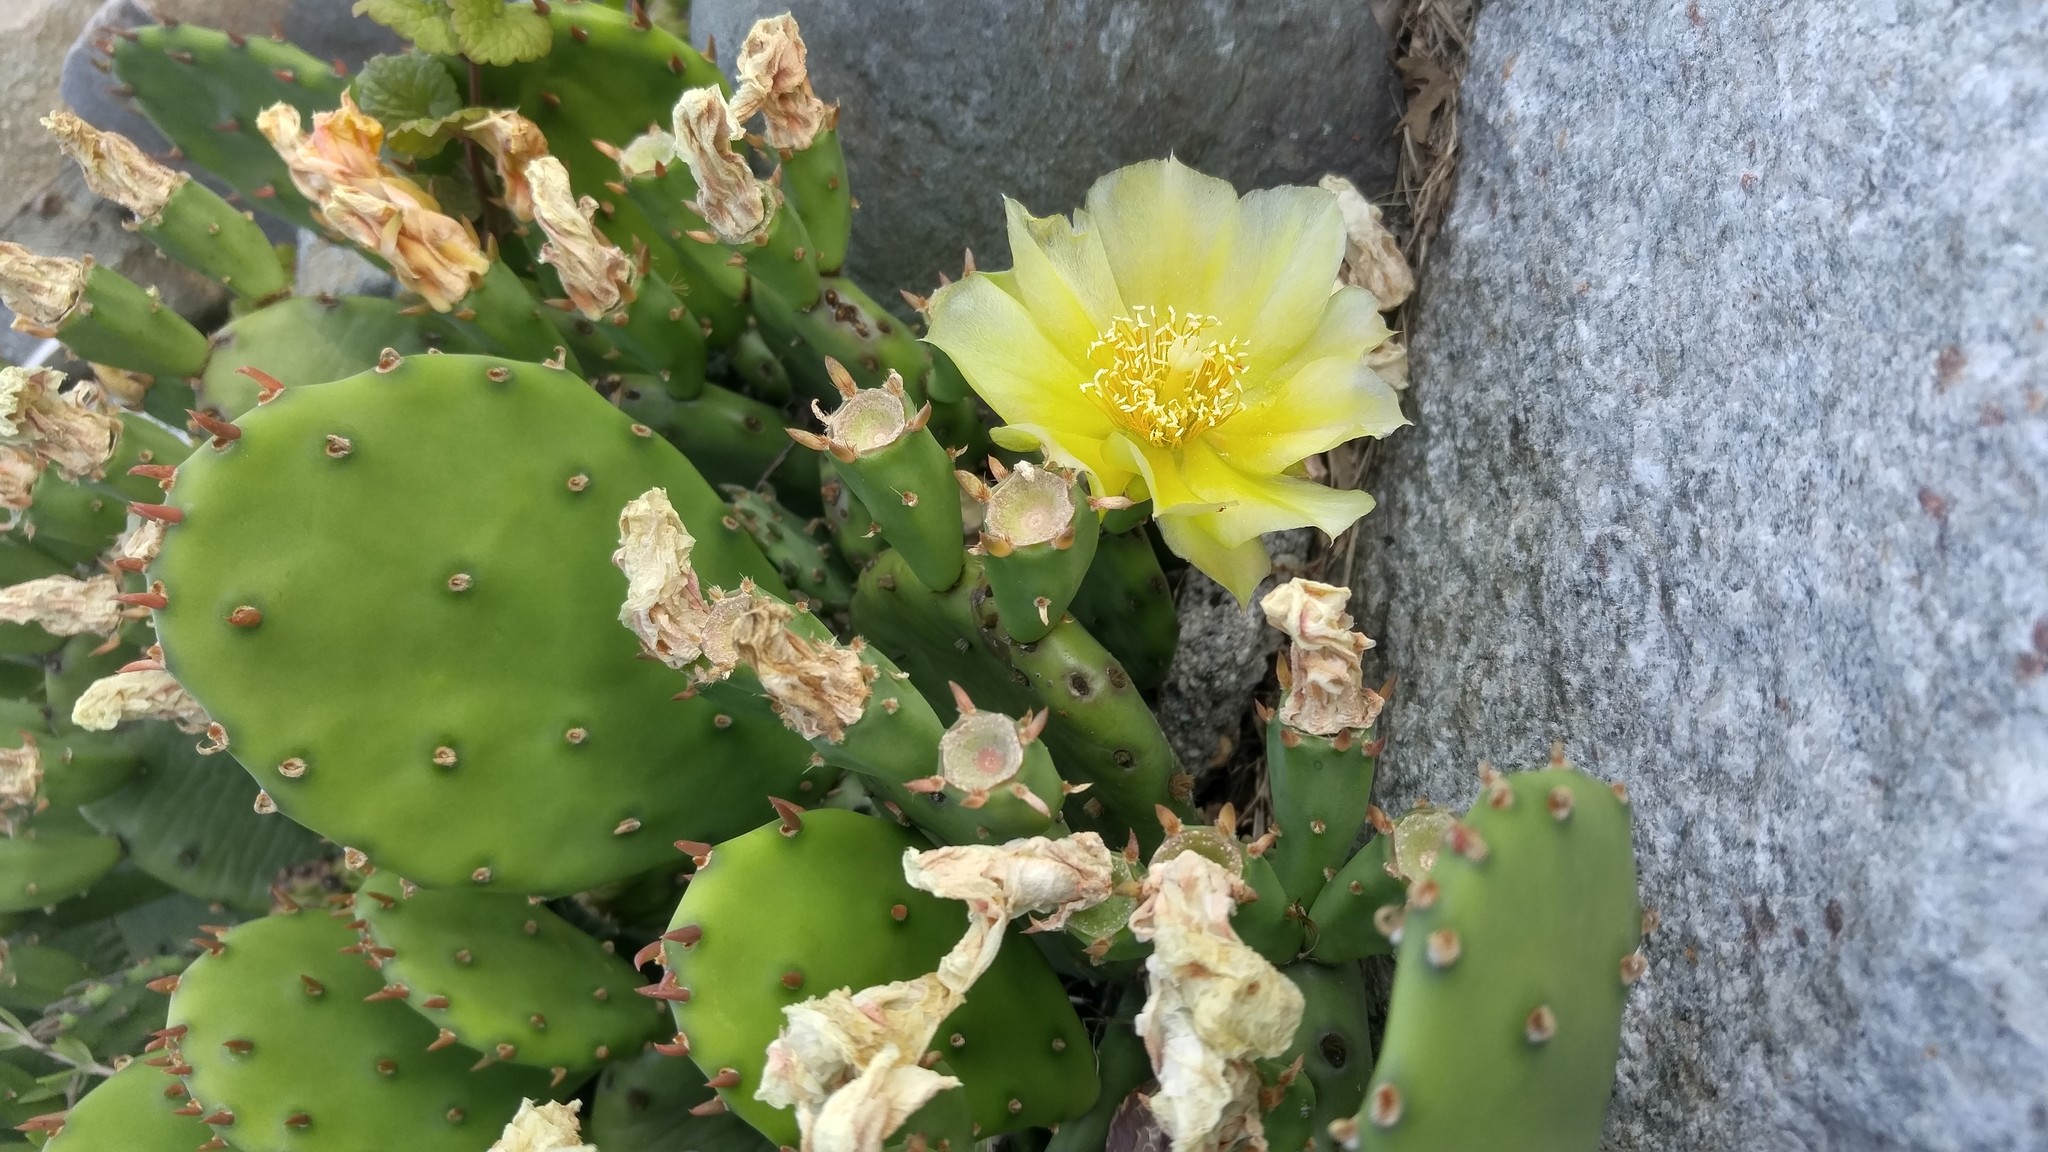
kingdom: Plantae
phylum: Tracheophyta
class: Magnoliopsida
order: Caryophyllales
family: Cactaceae
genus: Opuntia
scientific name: Opuntia humifusa
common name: Eastern prickly-pear
